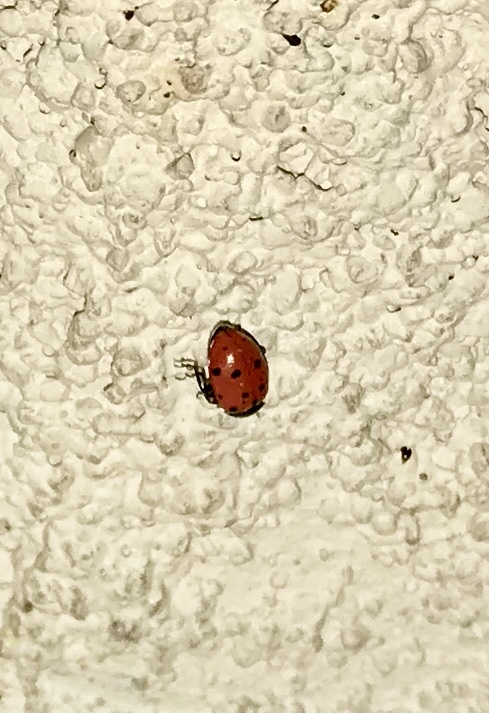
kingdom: Animalia
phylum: Arthropoda
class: Insecta
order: Coleoptera
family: Coccinellidae
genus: Hippodamia
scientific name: Hippodamia convergens
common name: Convergent lady beetle
